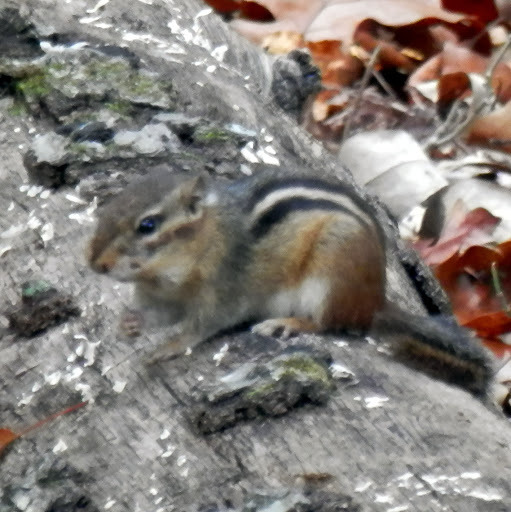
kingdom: Animalia
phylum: Chordata
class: Mammalia
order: Rodentia
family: Sciuridae
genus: Tamias
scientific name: Tamias striatus
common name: Eastern chipmunk
